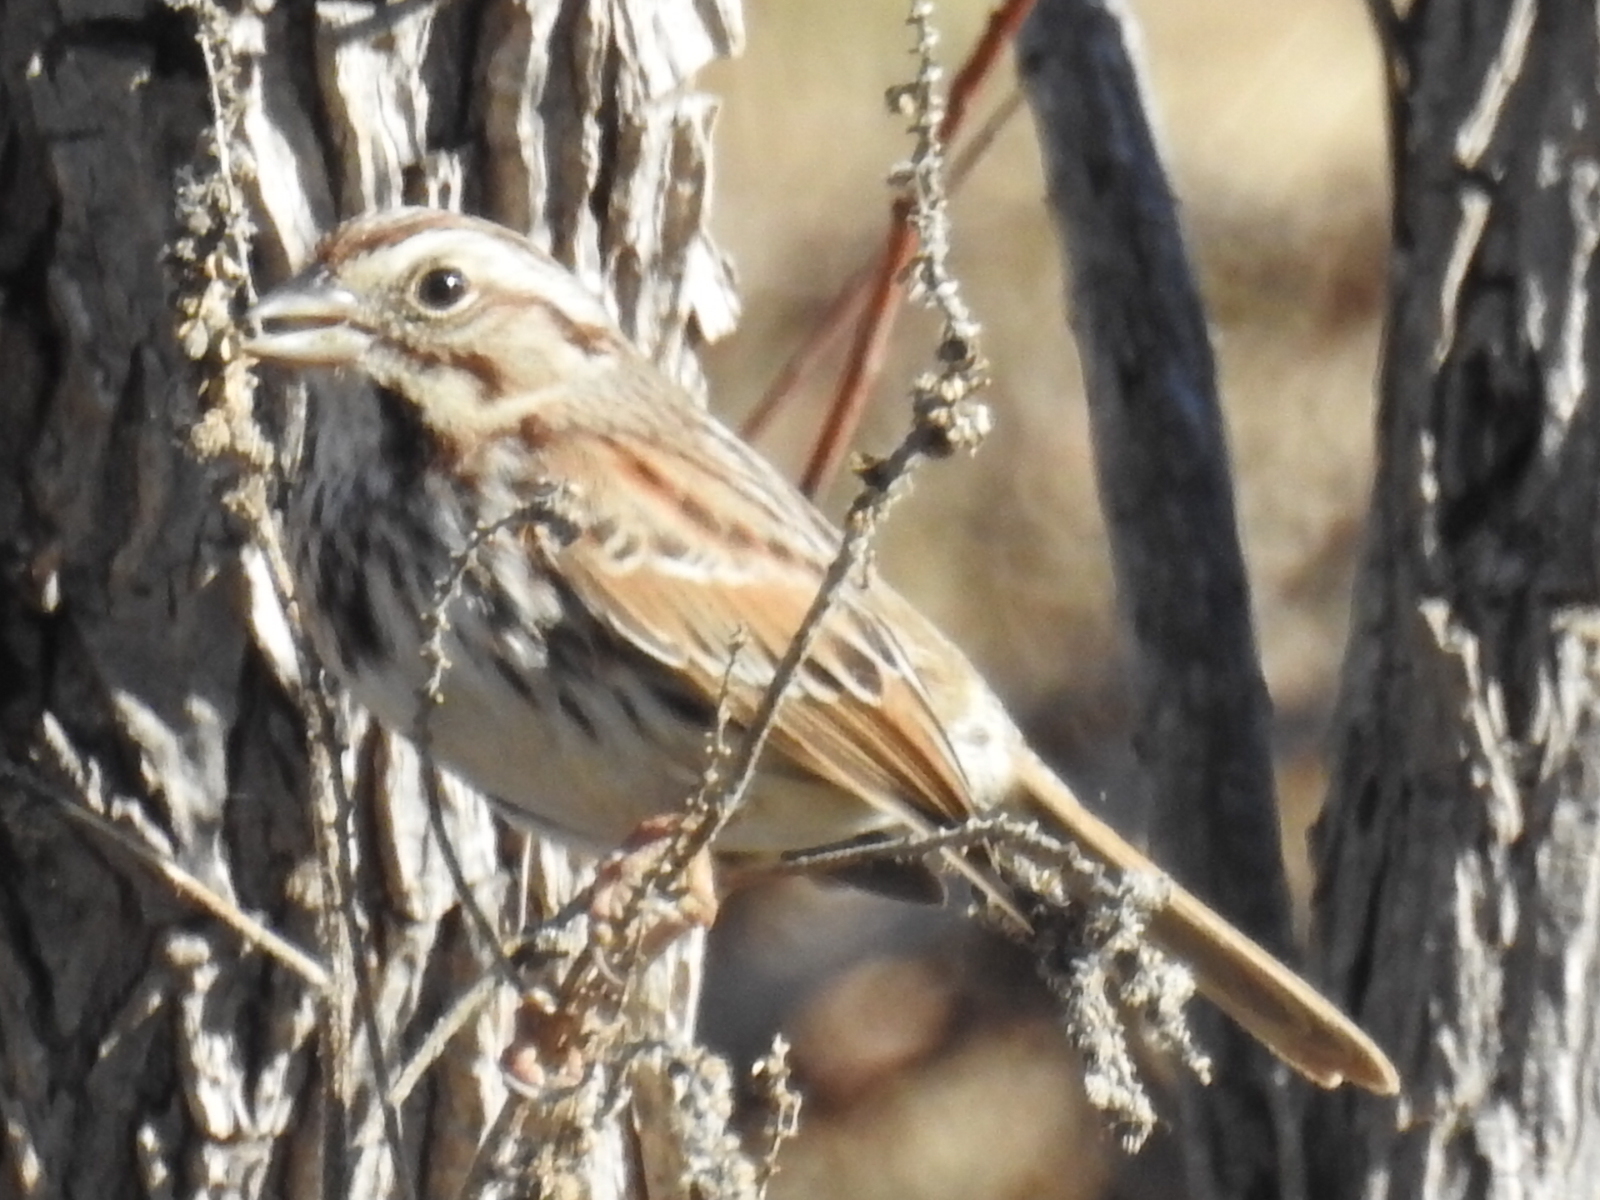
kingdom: Animalia
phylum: Chordata
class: Aves
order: Passeriformes
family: Passerellidae
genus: Melospiza
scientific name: Melospiza melodia
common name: Song sparrow
